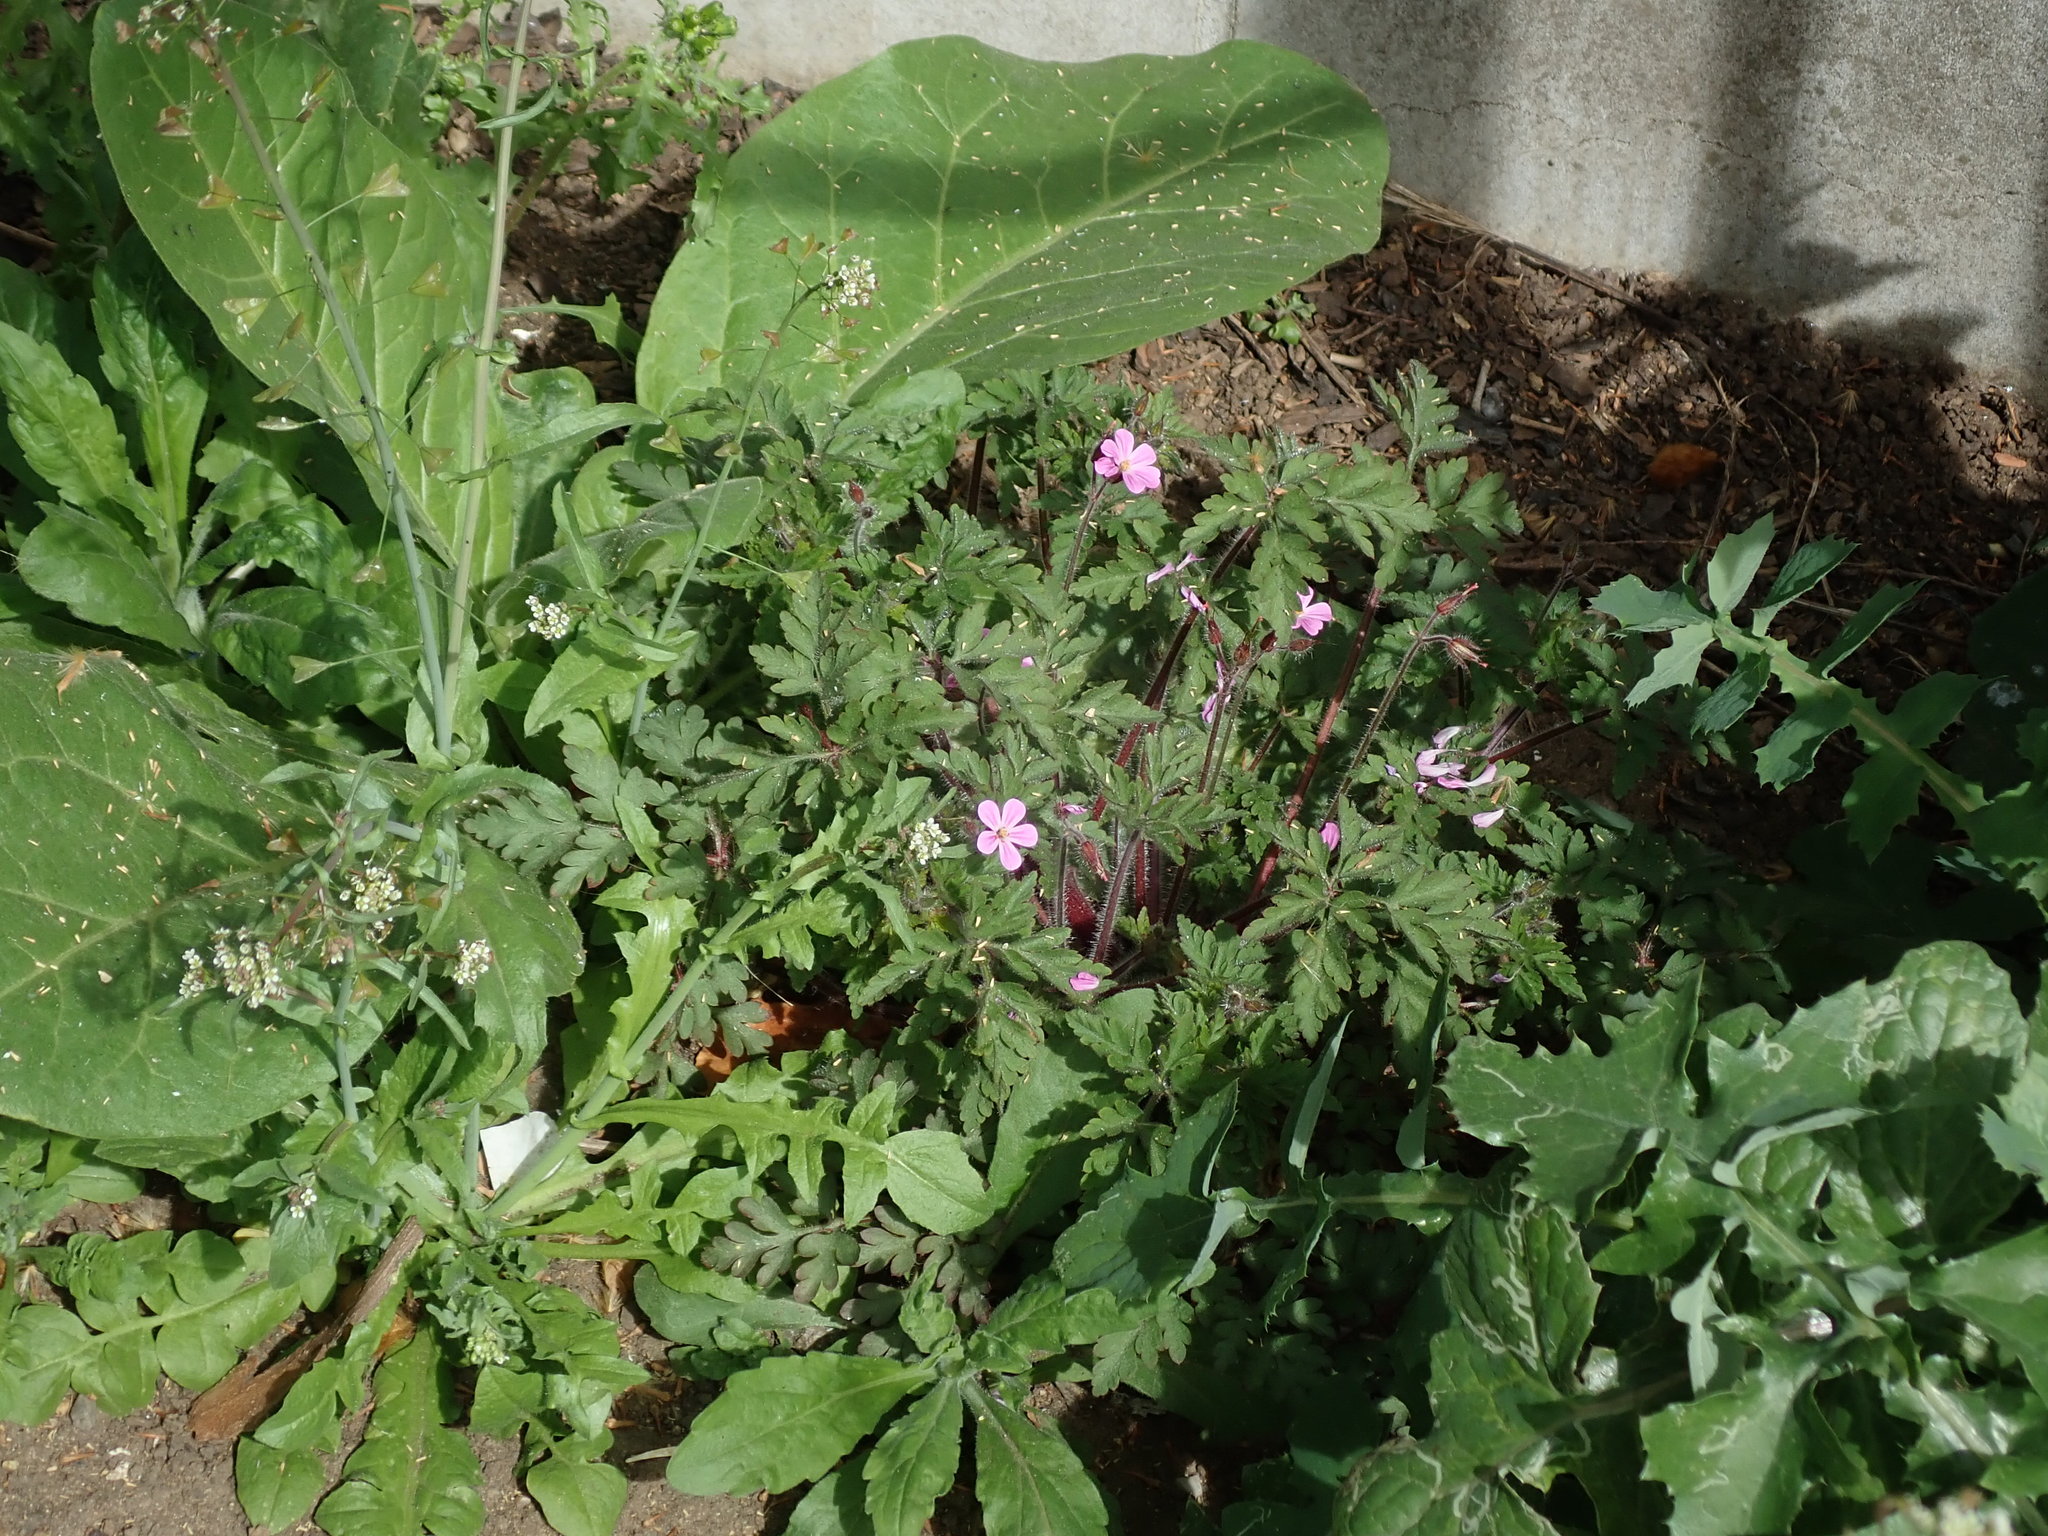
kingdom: Plantae
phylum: Tracheophyta
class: Magnoliopsida
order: Geraniales
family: Geraniaceae
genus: Geranium
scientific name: Geranium robertianum
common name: Herb-robert
